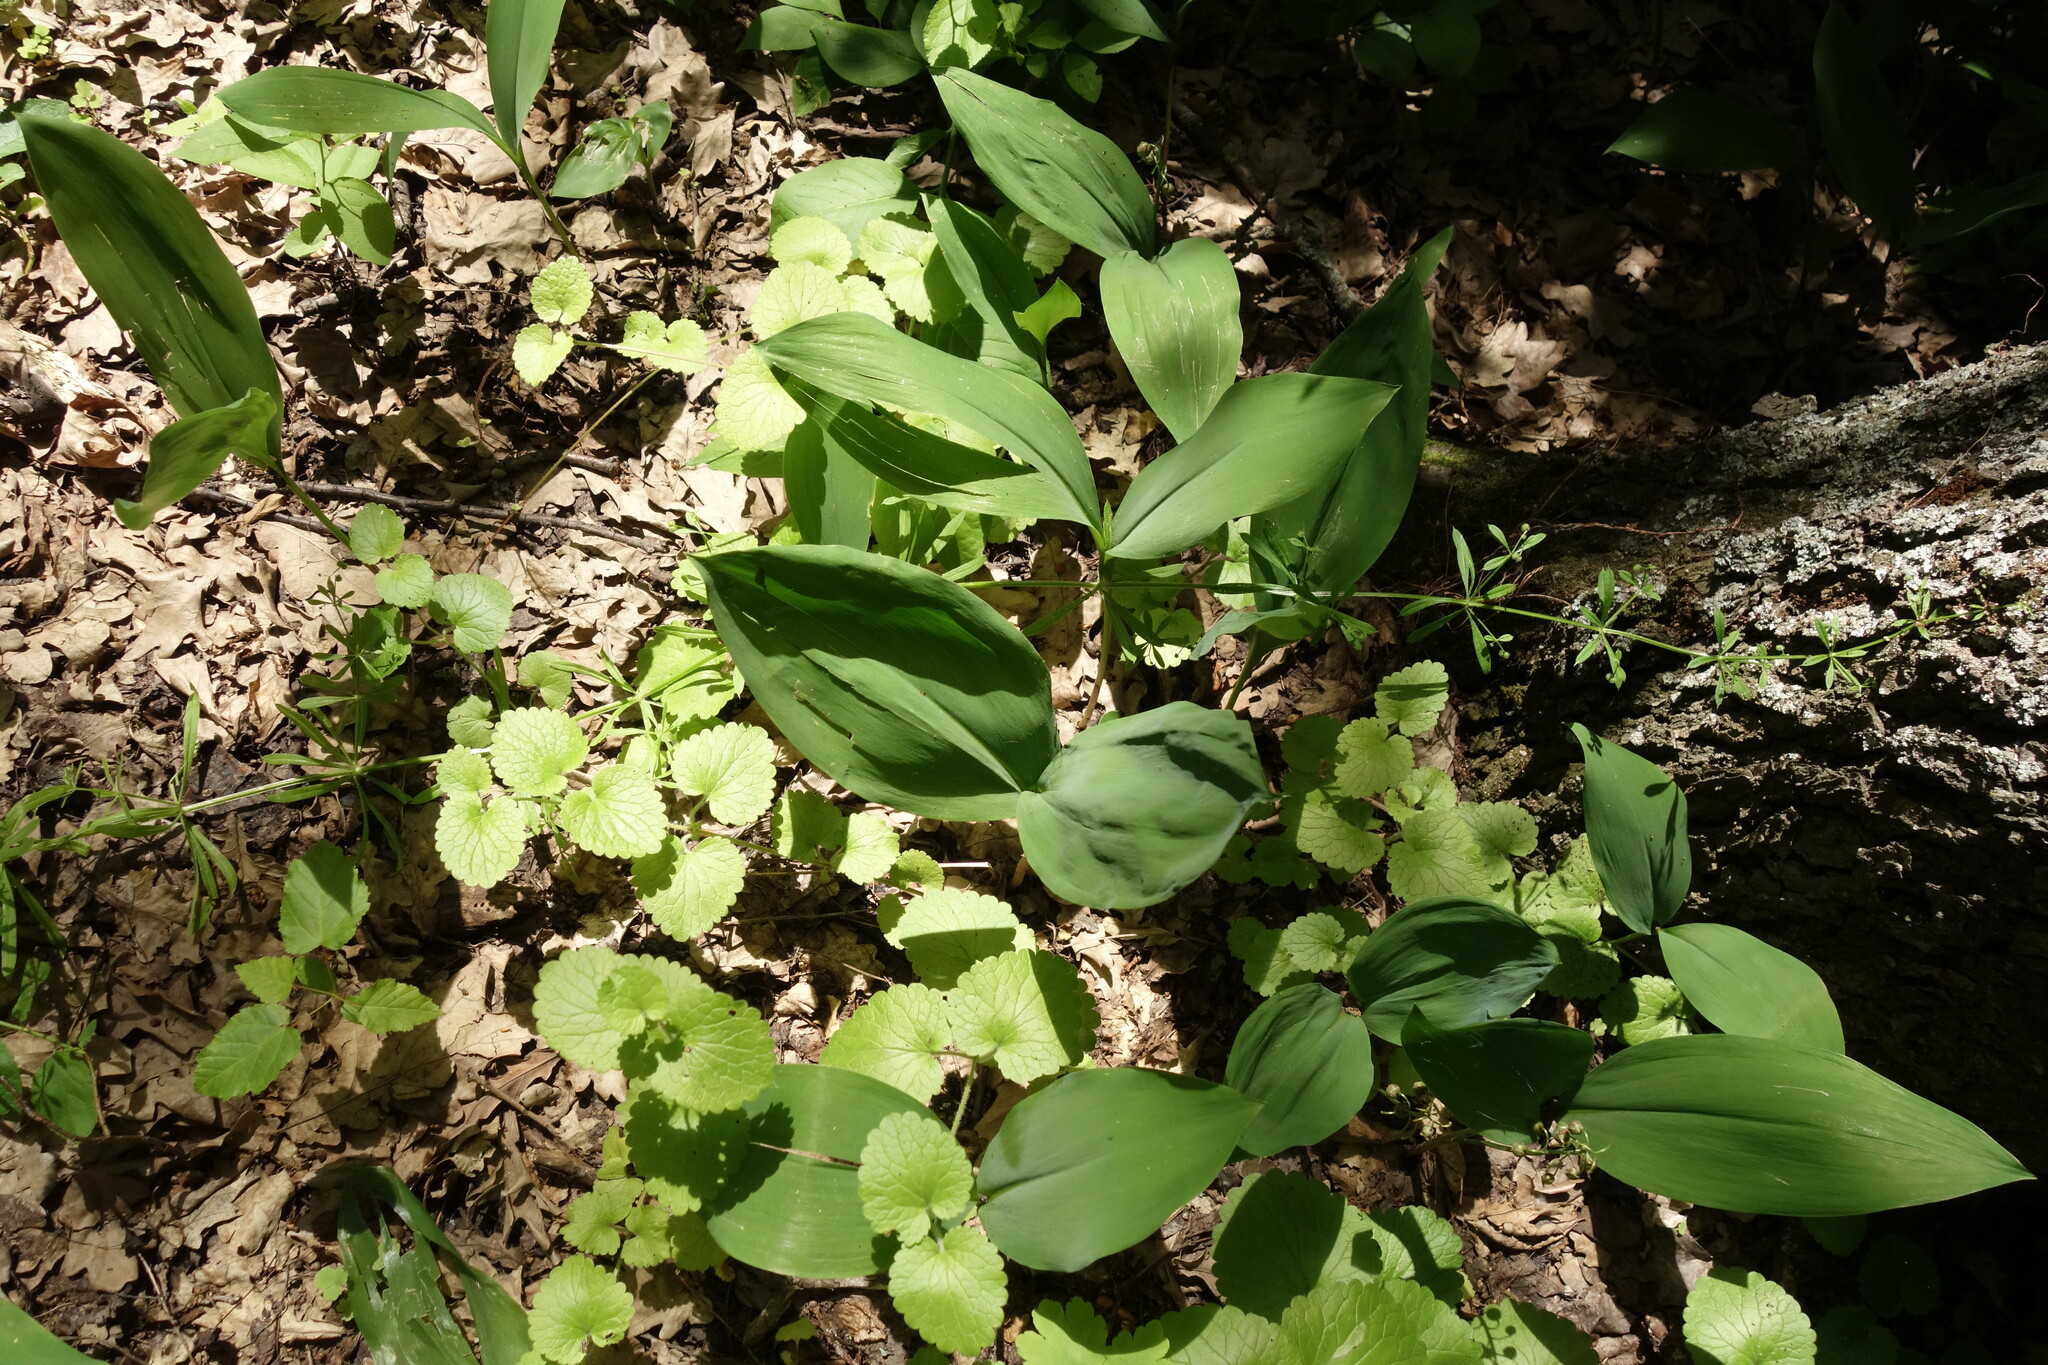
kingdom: Plantae
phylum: Tracheophyta
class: Liliopsida
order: Asparagales
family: Asparagaceae
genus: Convallaria
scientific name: Convallaria majalis
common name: Lily-of-the-valley
